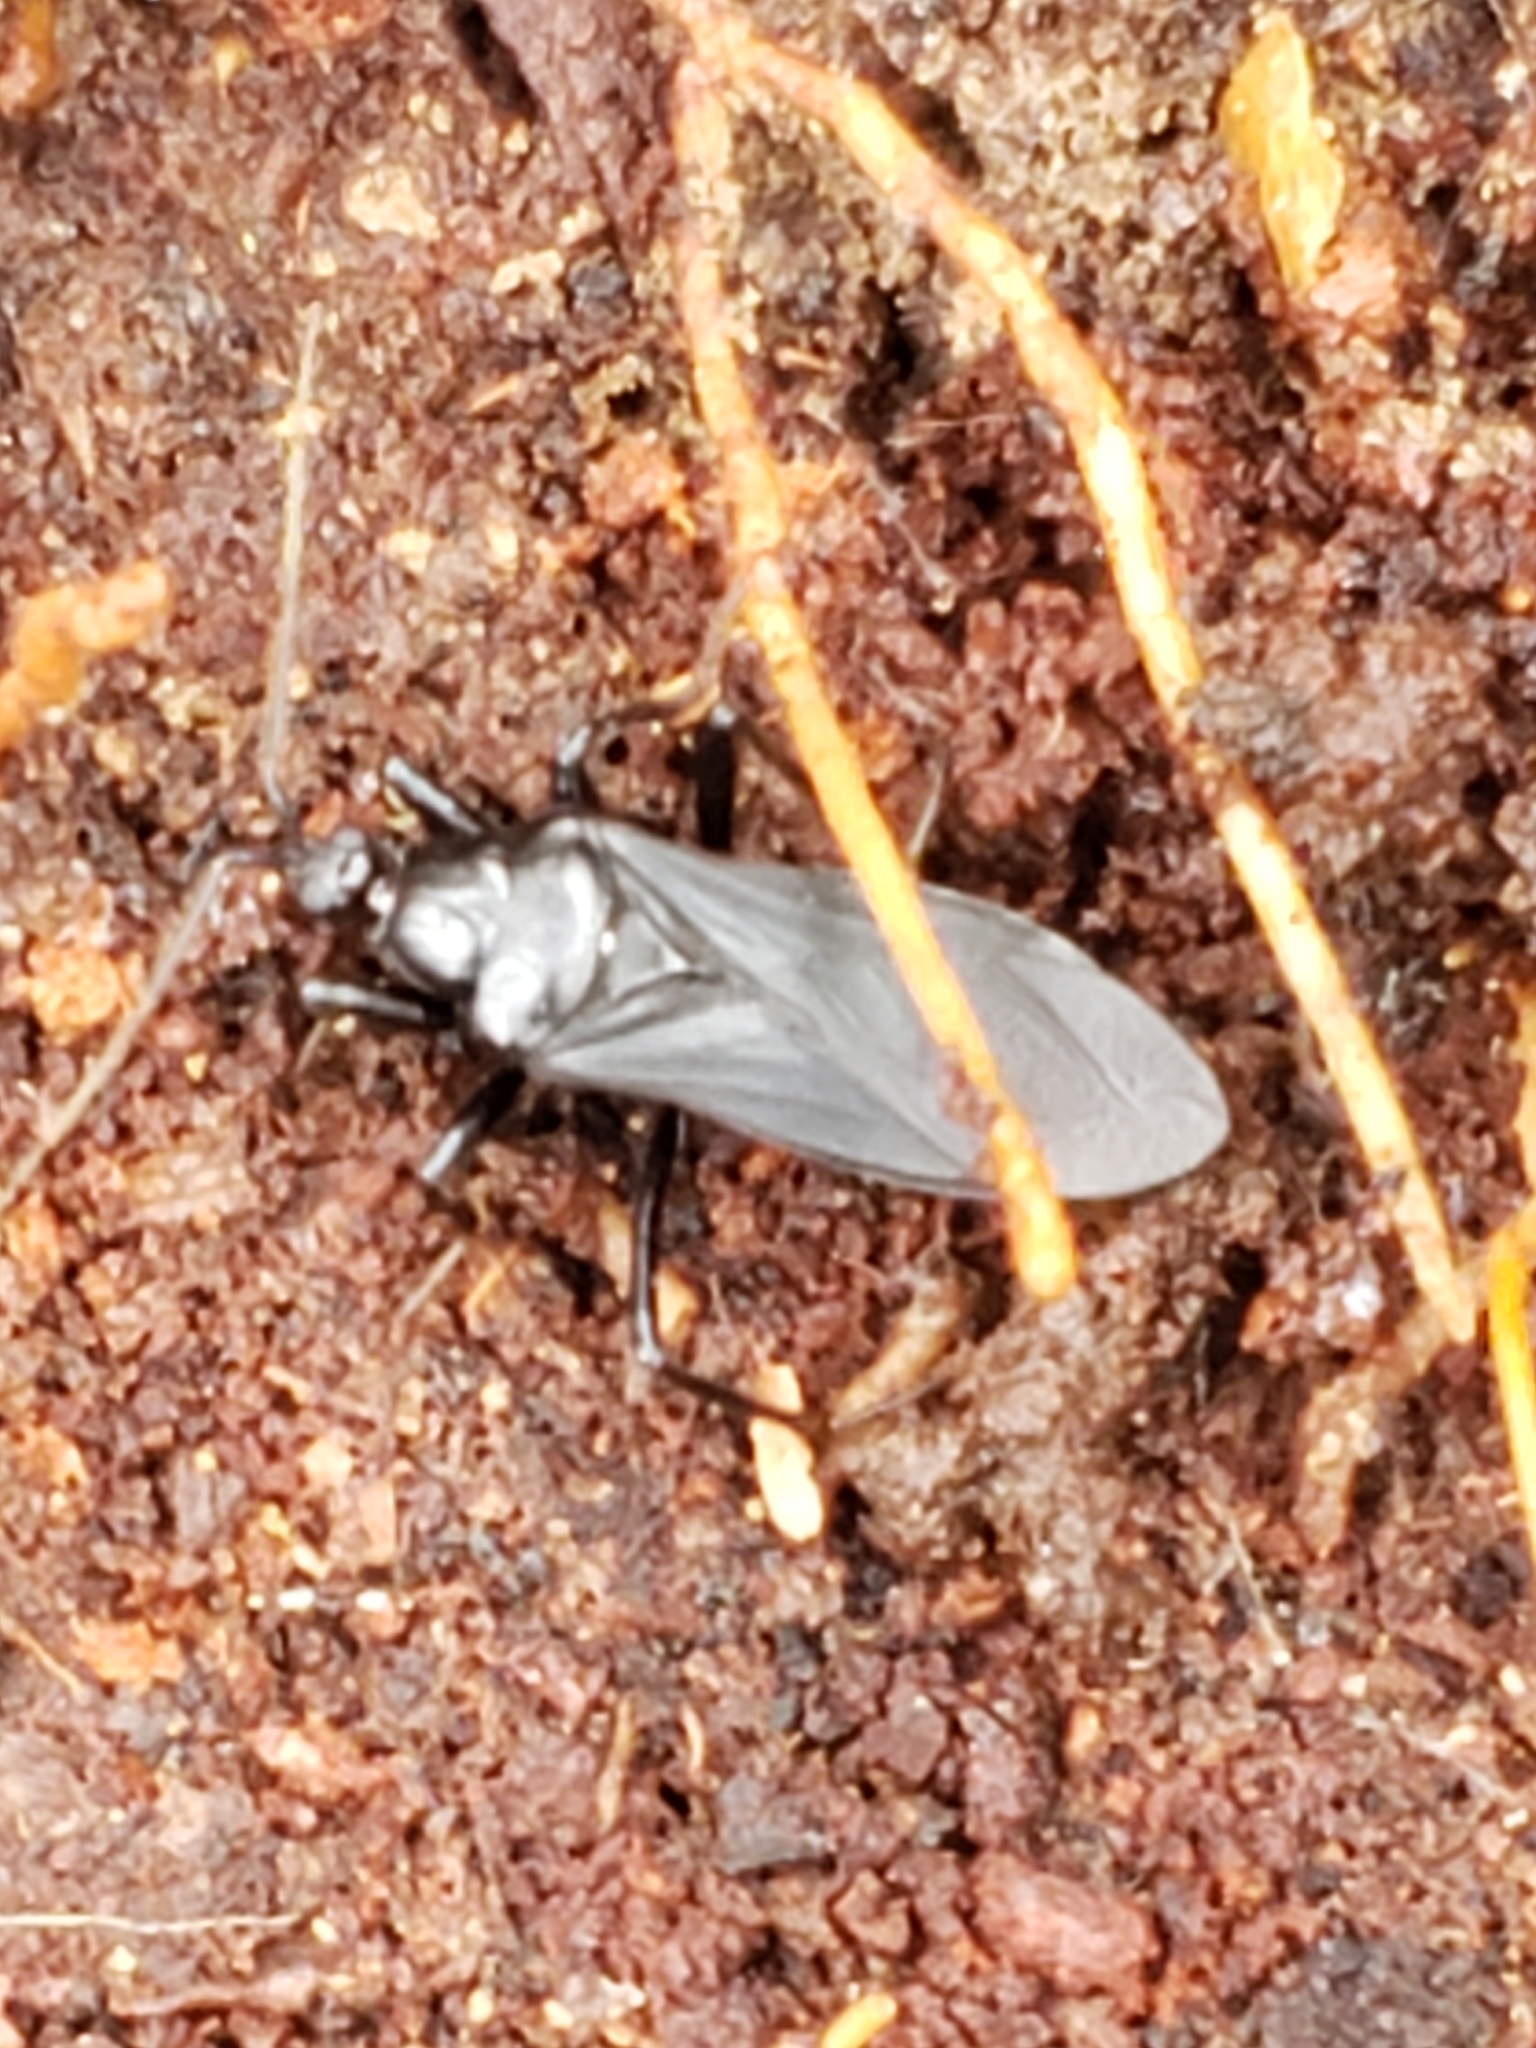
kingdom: Animalia
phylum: Arthropoda
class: Insecta
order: Hemiptera
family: Reduviidae
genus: Melanolestes
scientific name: Melanolestes picipes
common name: Assassin bug
